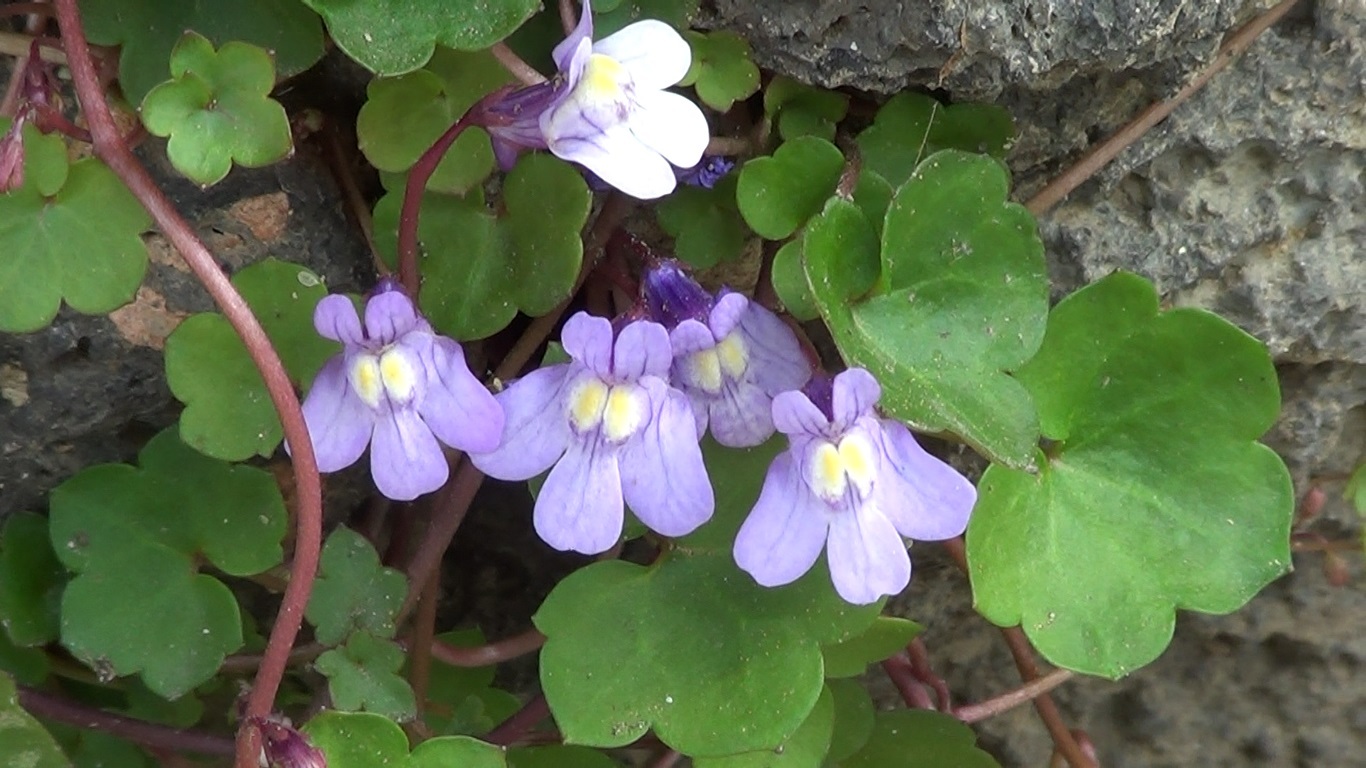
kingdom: Plantae
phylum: Tracheophyta
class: Magnoliopsida
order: Lamiales
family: Plantaginaceae
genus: Cymbalaria
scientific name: Cymbalaria muralis
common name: Ivy-leaved toadflax
